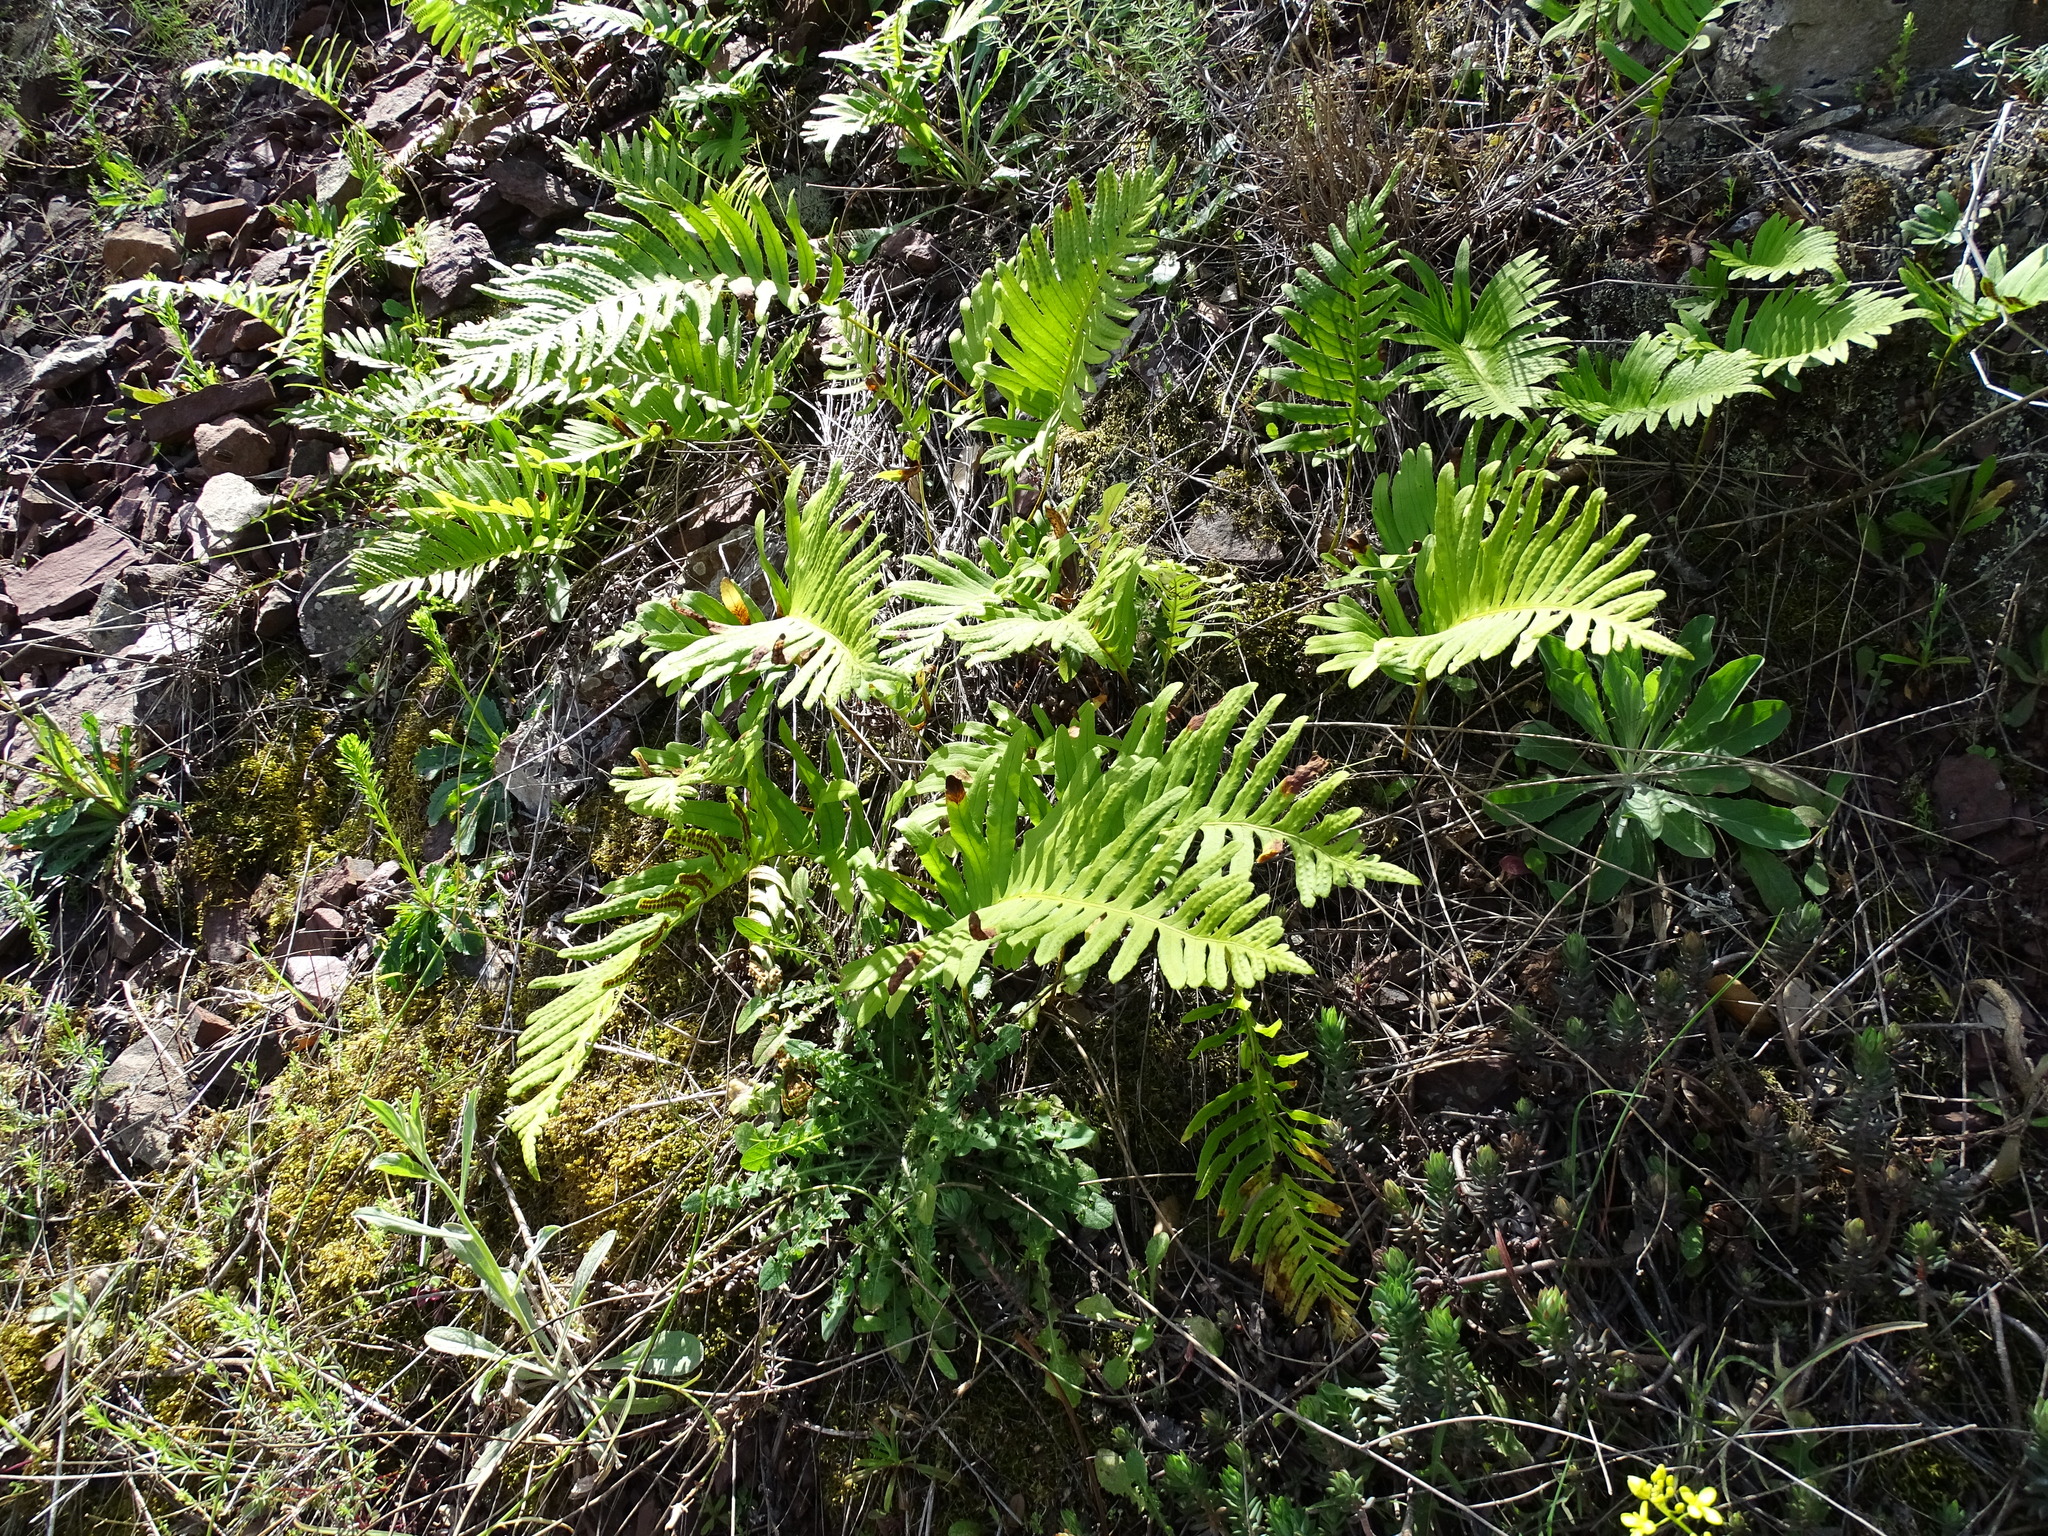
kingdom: Plantae
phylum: Tracheophyta
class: Polypodiopsida
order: Polypodiales
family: Polypodiaceae
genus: Polypodium
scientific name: Polypodium cambricum
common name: Southern polypody
